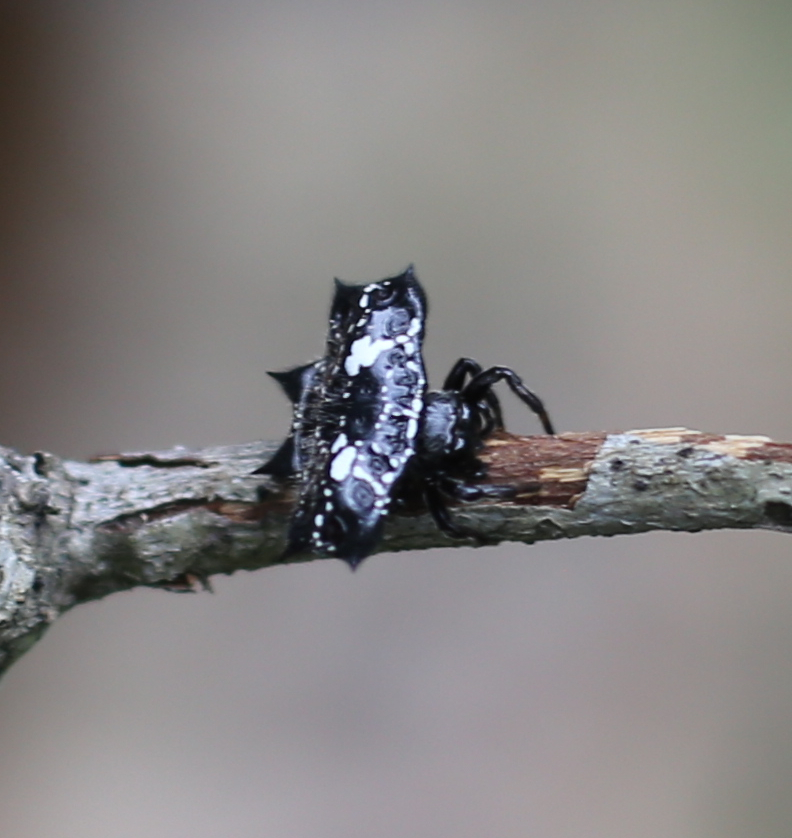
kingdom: Animalia
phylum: Arthropoda
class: Arachnida
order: Araneae
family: Araneidae
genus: Gasteracantha
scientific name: Gasteracantha cancriformis
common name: Orb weavers
